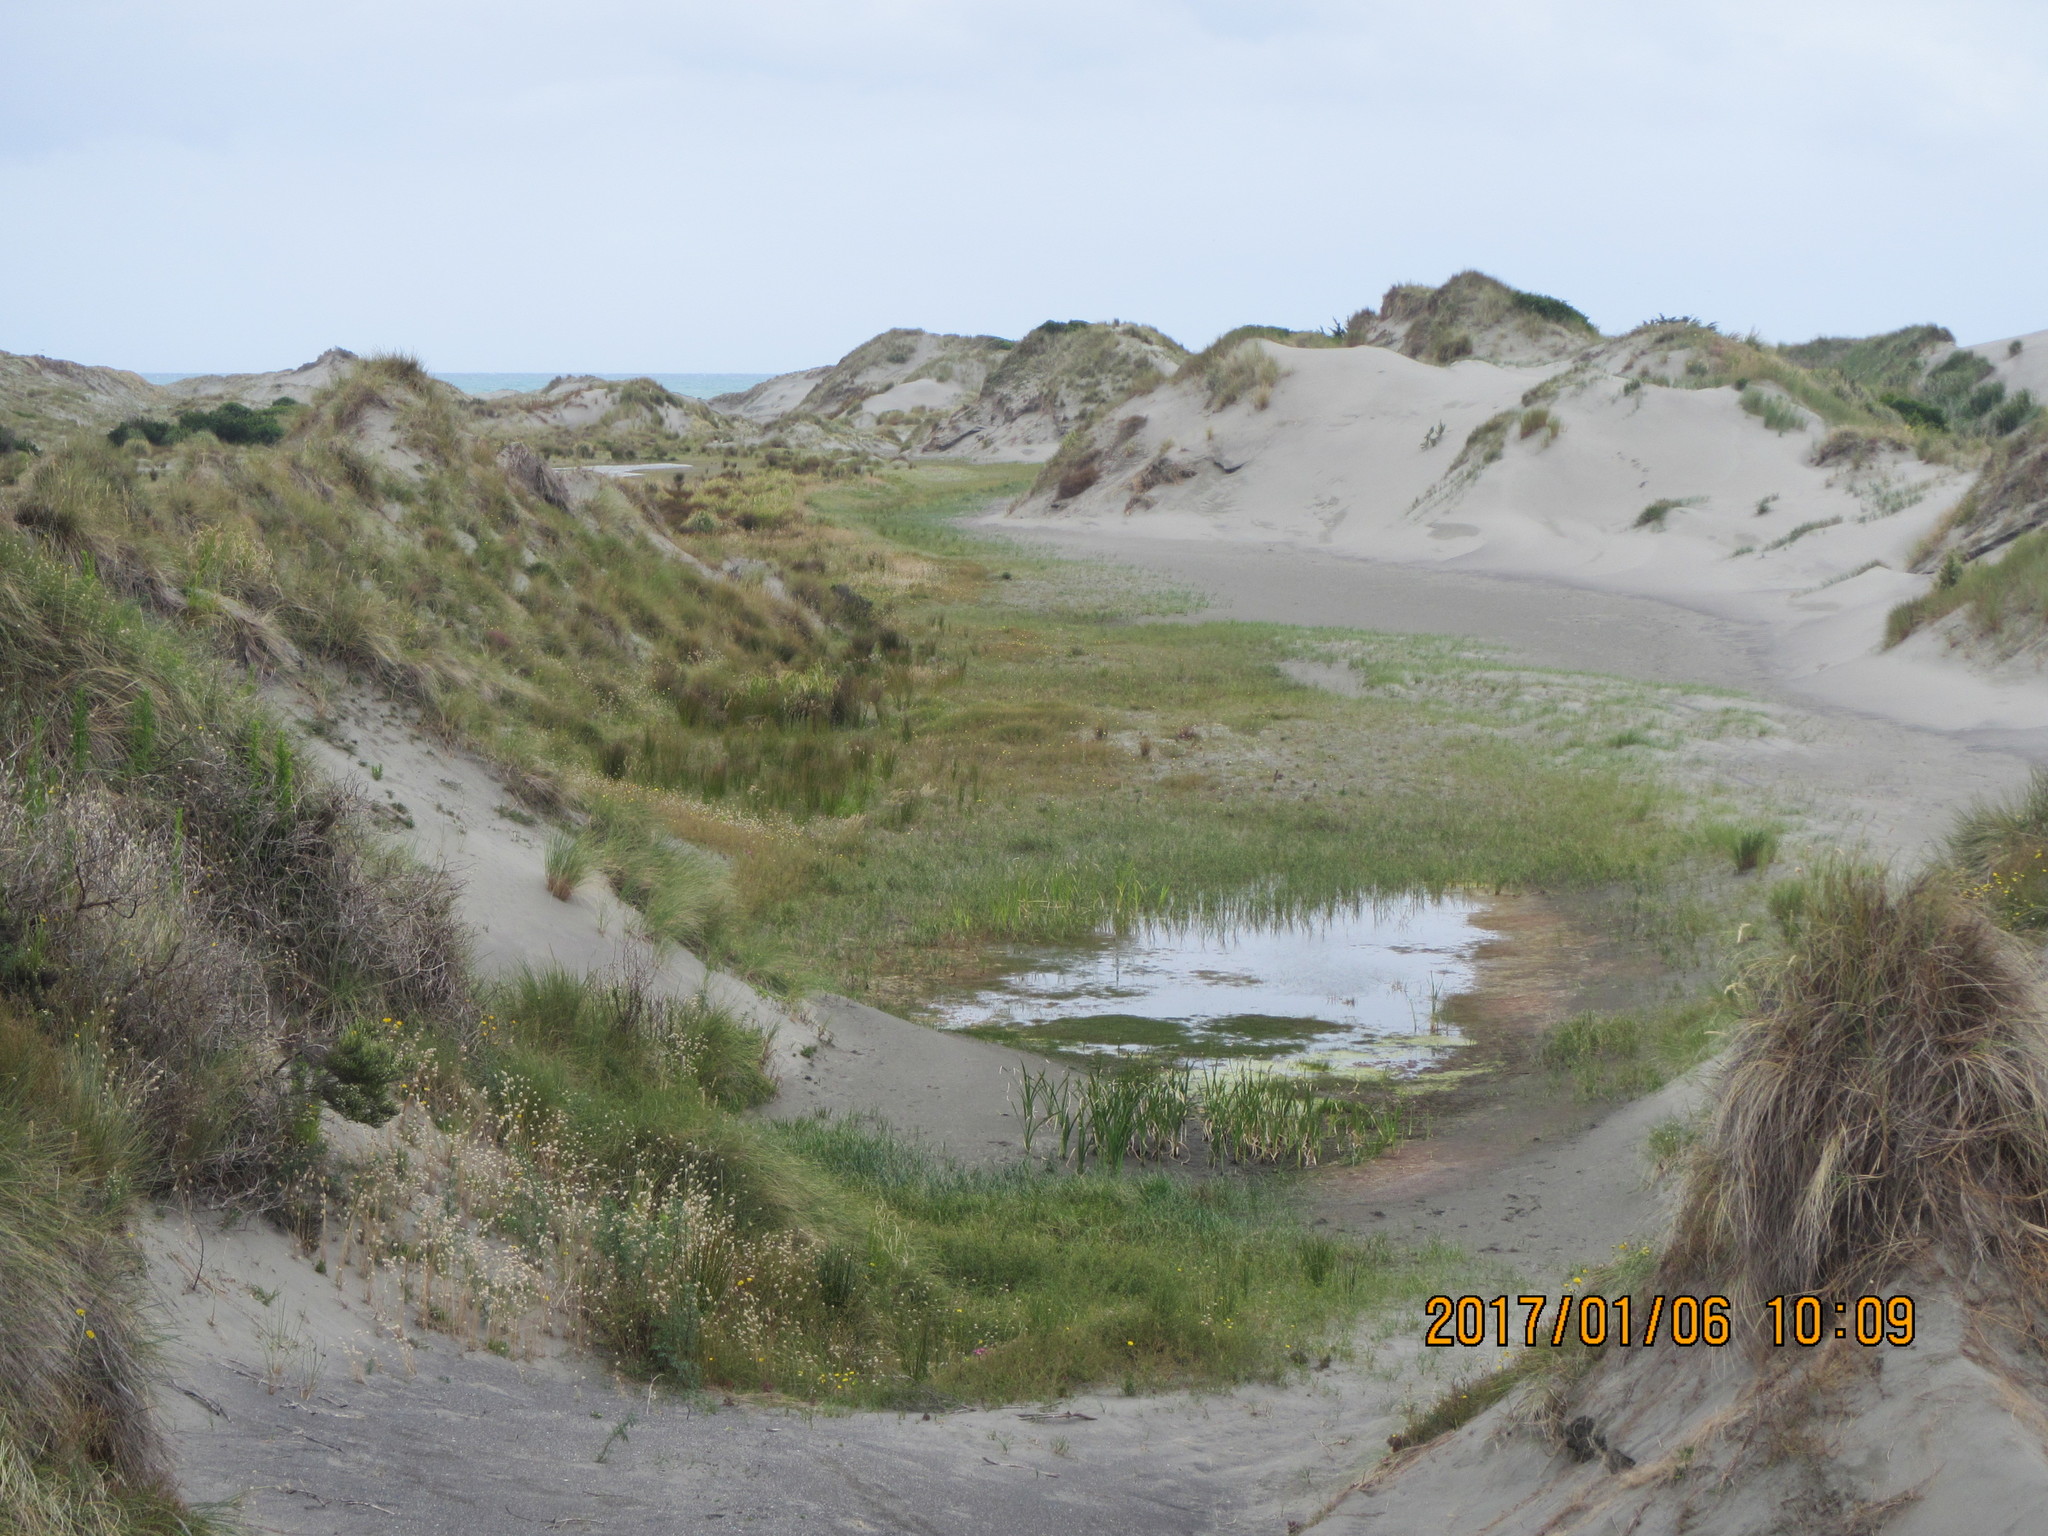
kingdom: Plantae
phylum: Tracheophyta
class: Liliopsida
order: Poales
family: Typhaceae
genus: Typha
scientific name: Typha orientalis
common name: Bullrush
